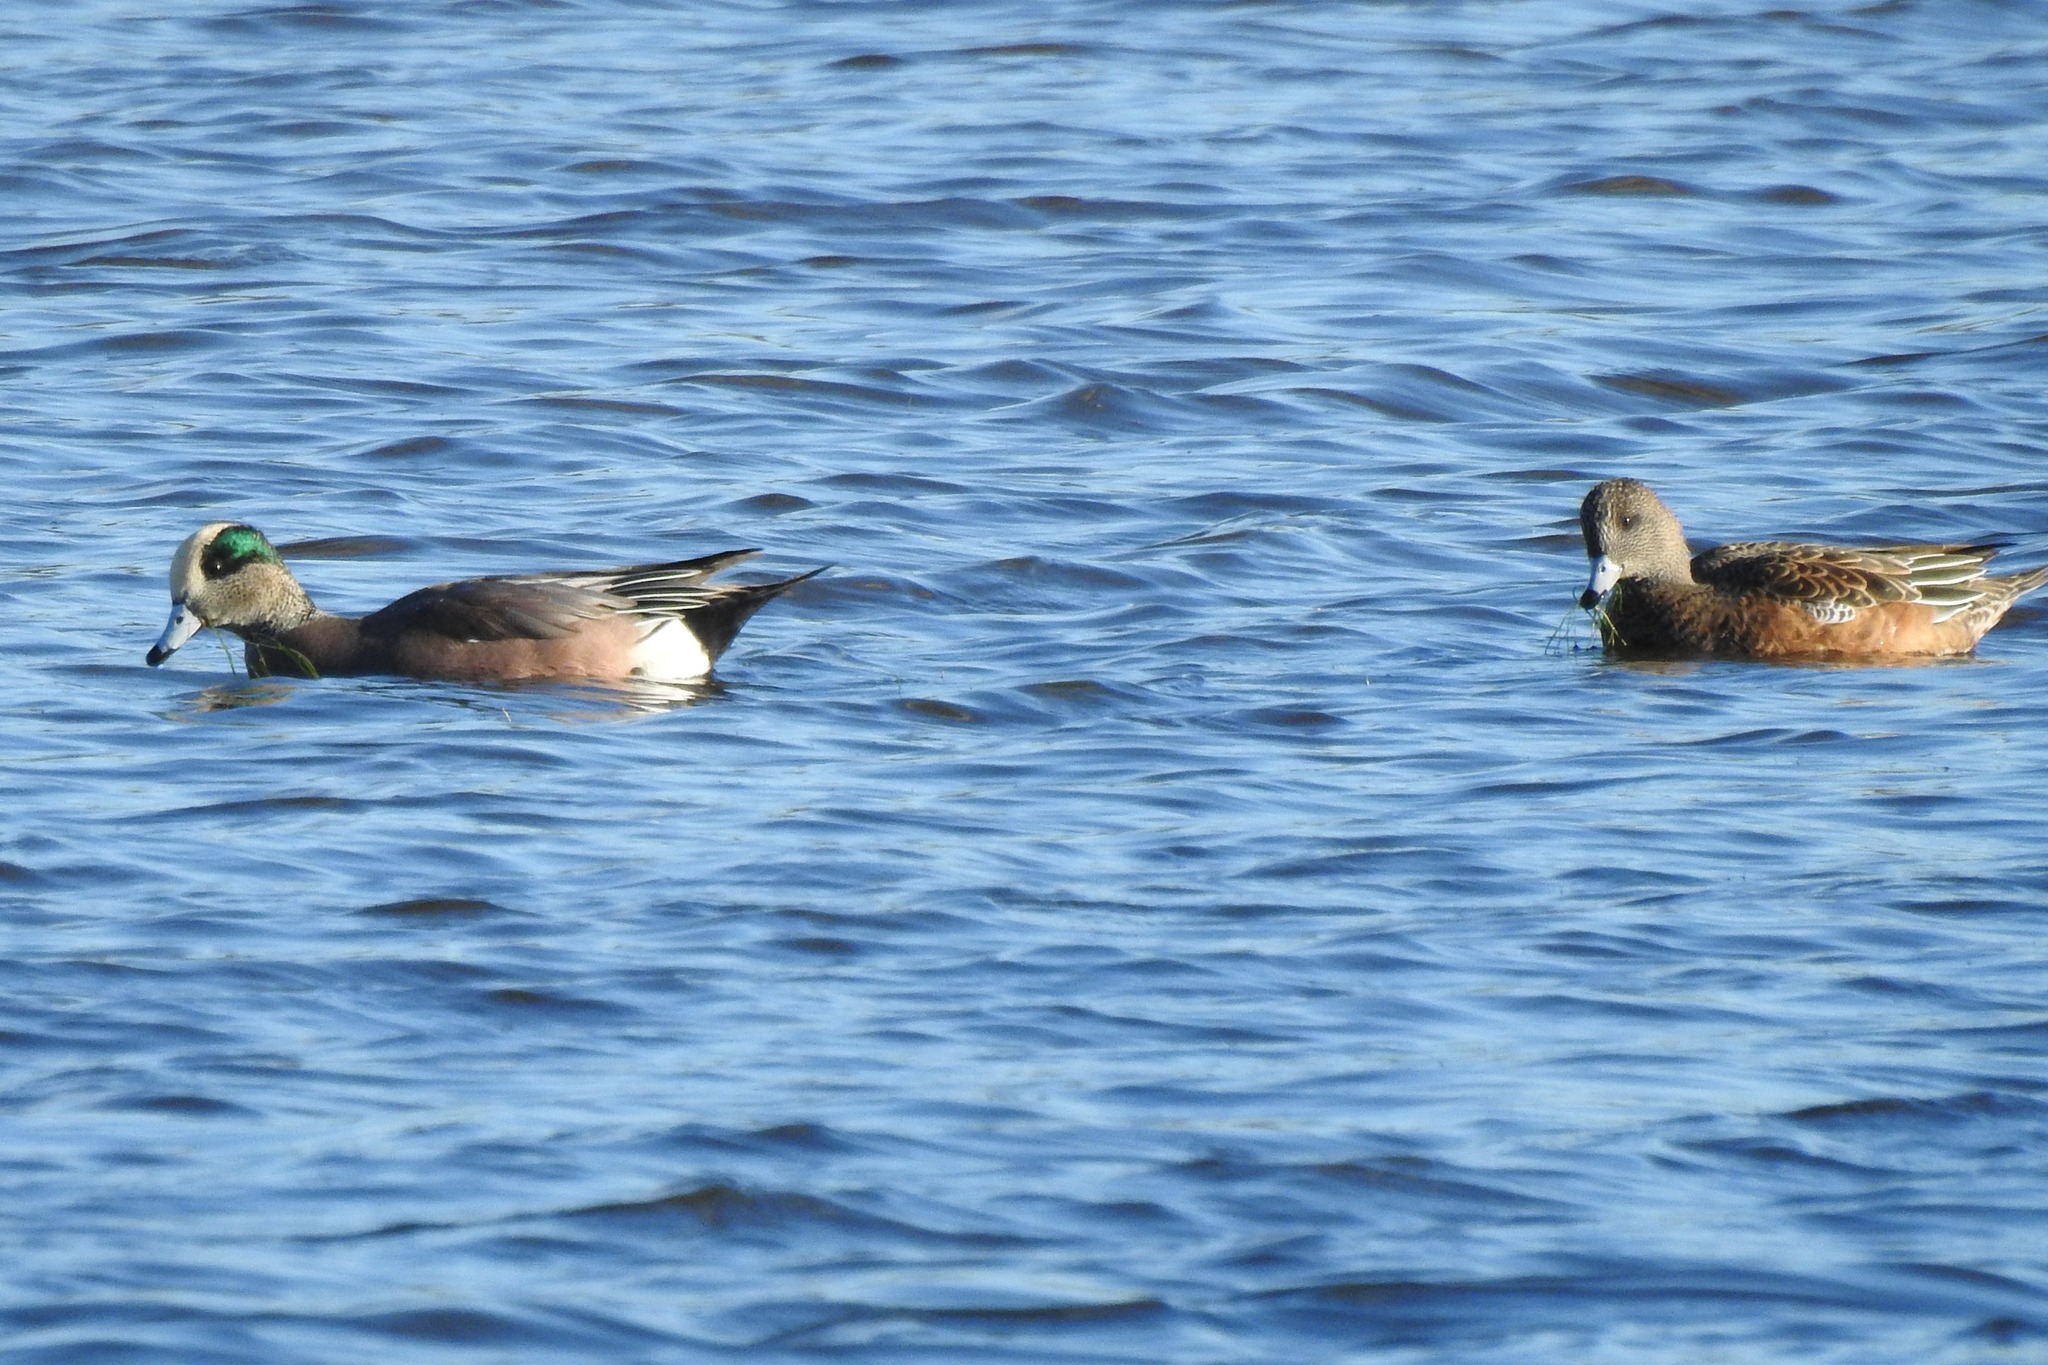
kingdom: Animalia
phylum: Chordata
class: Aves
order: Anseriformes
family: Anatidae
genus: Mareca
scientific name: Mareca americana
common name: American wigeon
